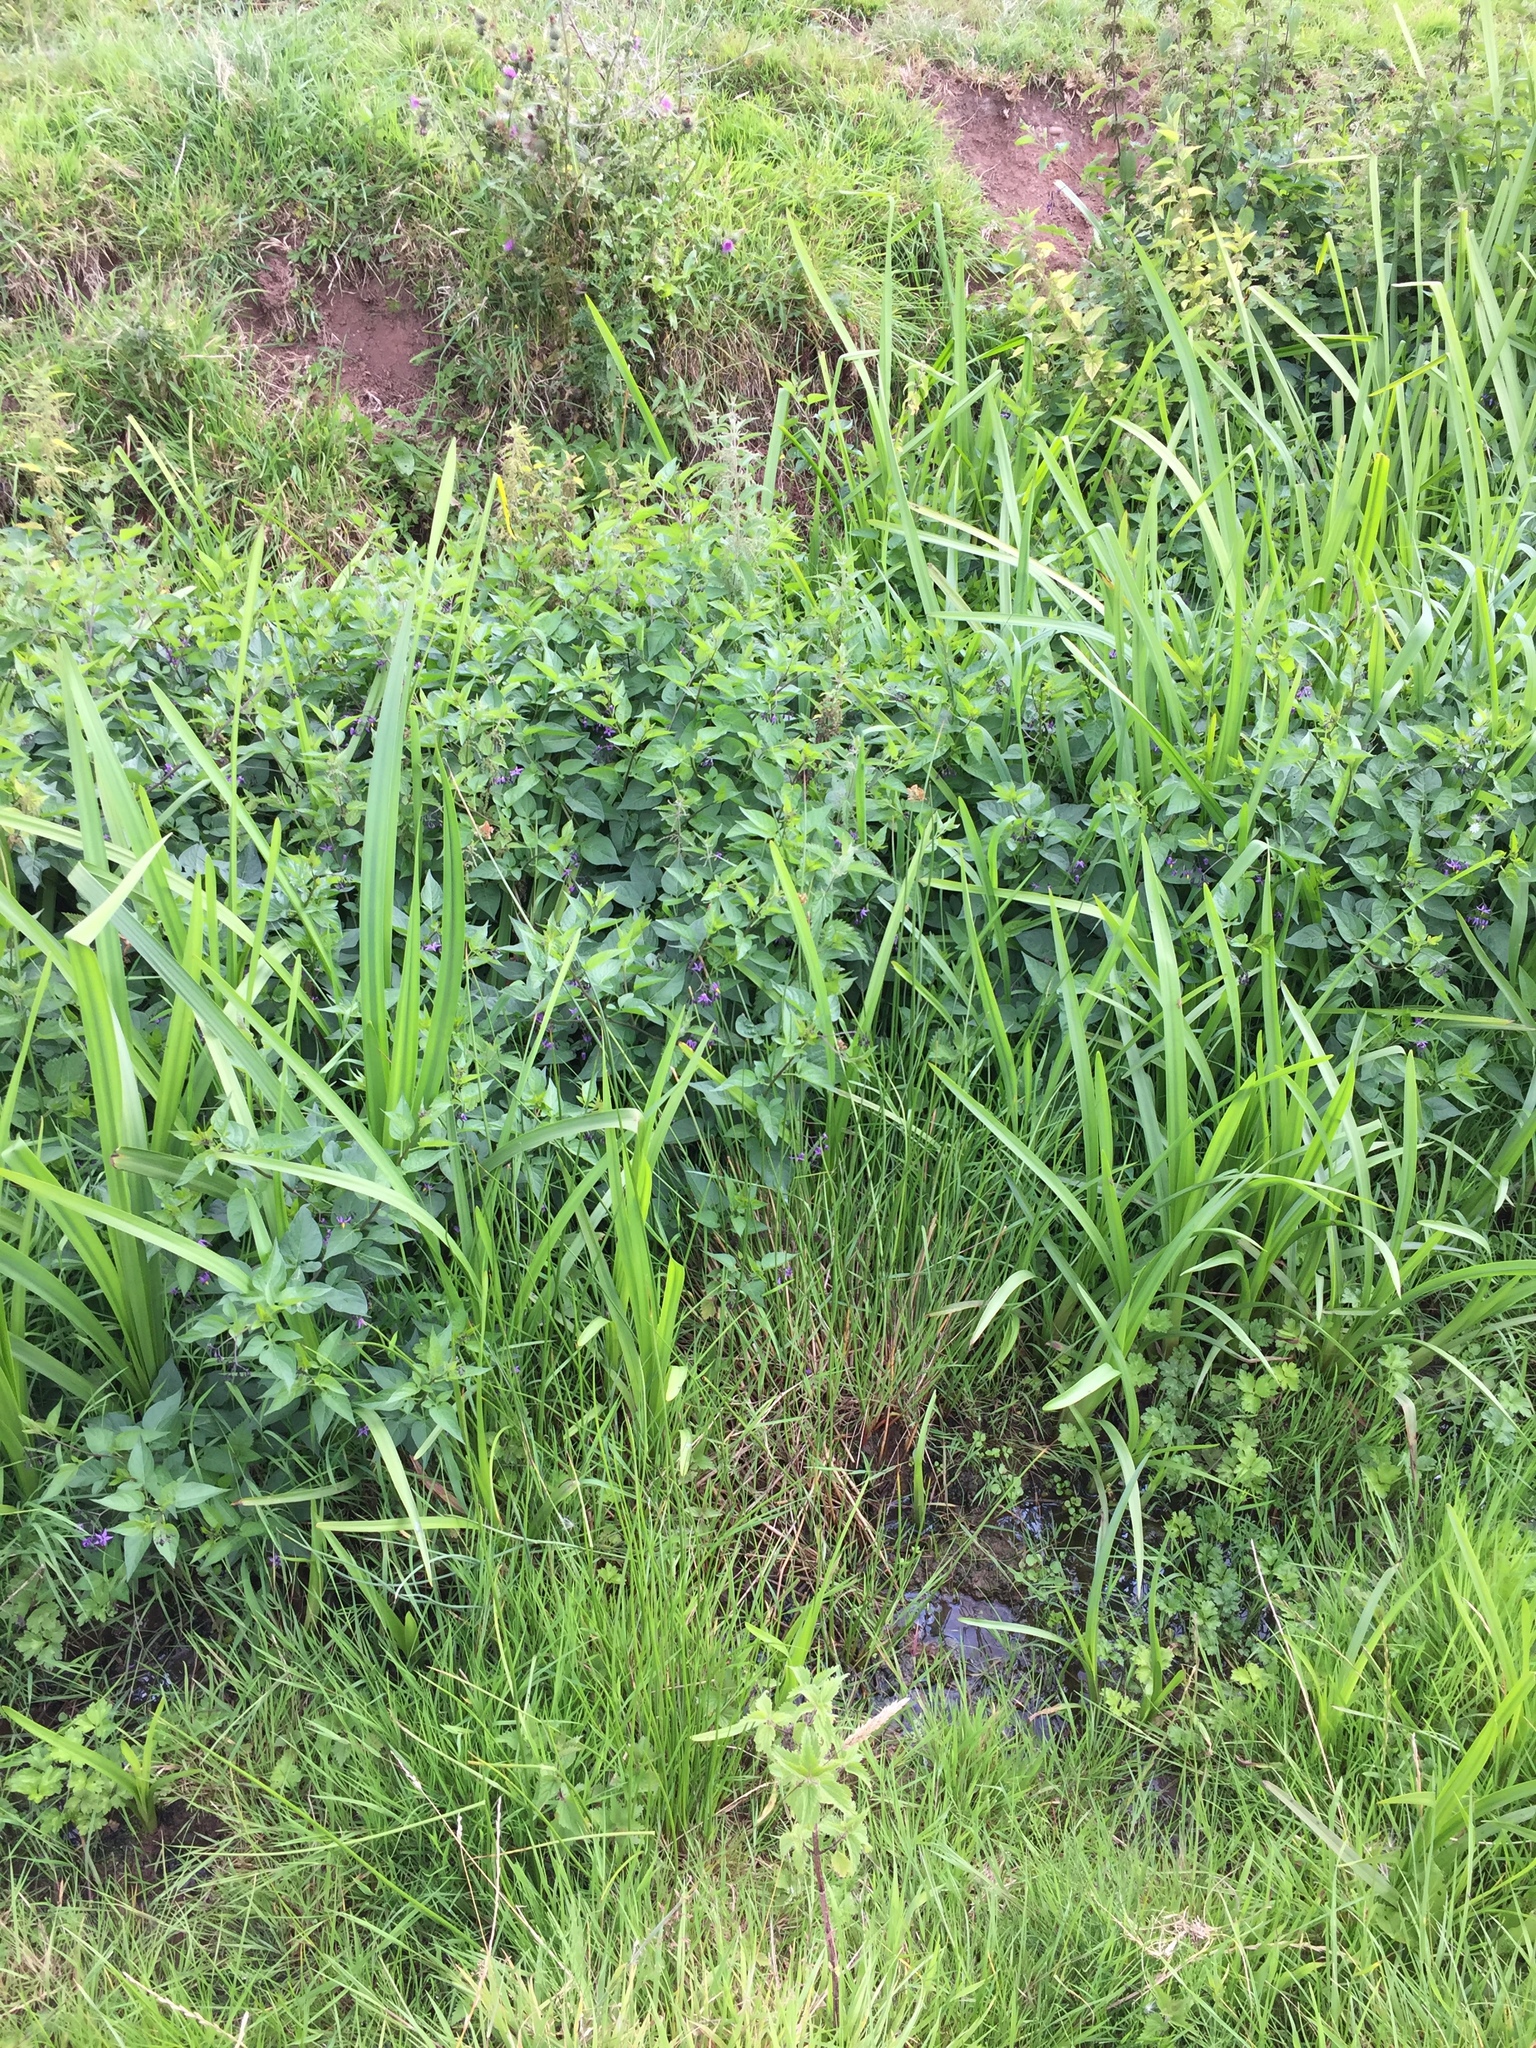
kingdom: Plantae
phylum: Tracheophyta
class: Magnoliopsida
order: Solanales
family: Solanaceae
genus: Solanum
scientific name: Solanum dulcamara
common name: Climbing nightshade
